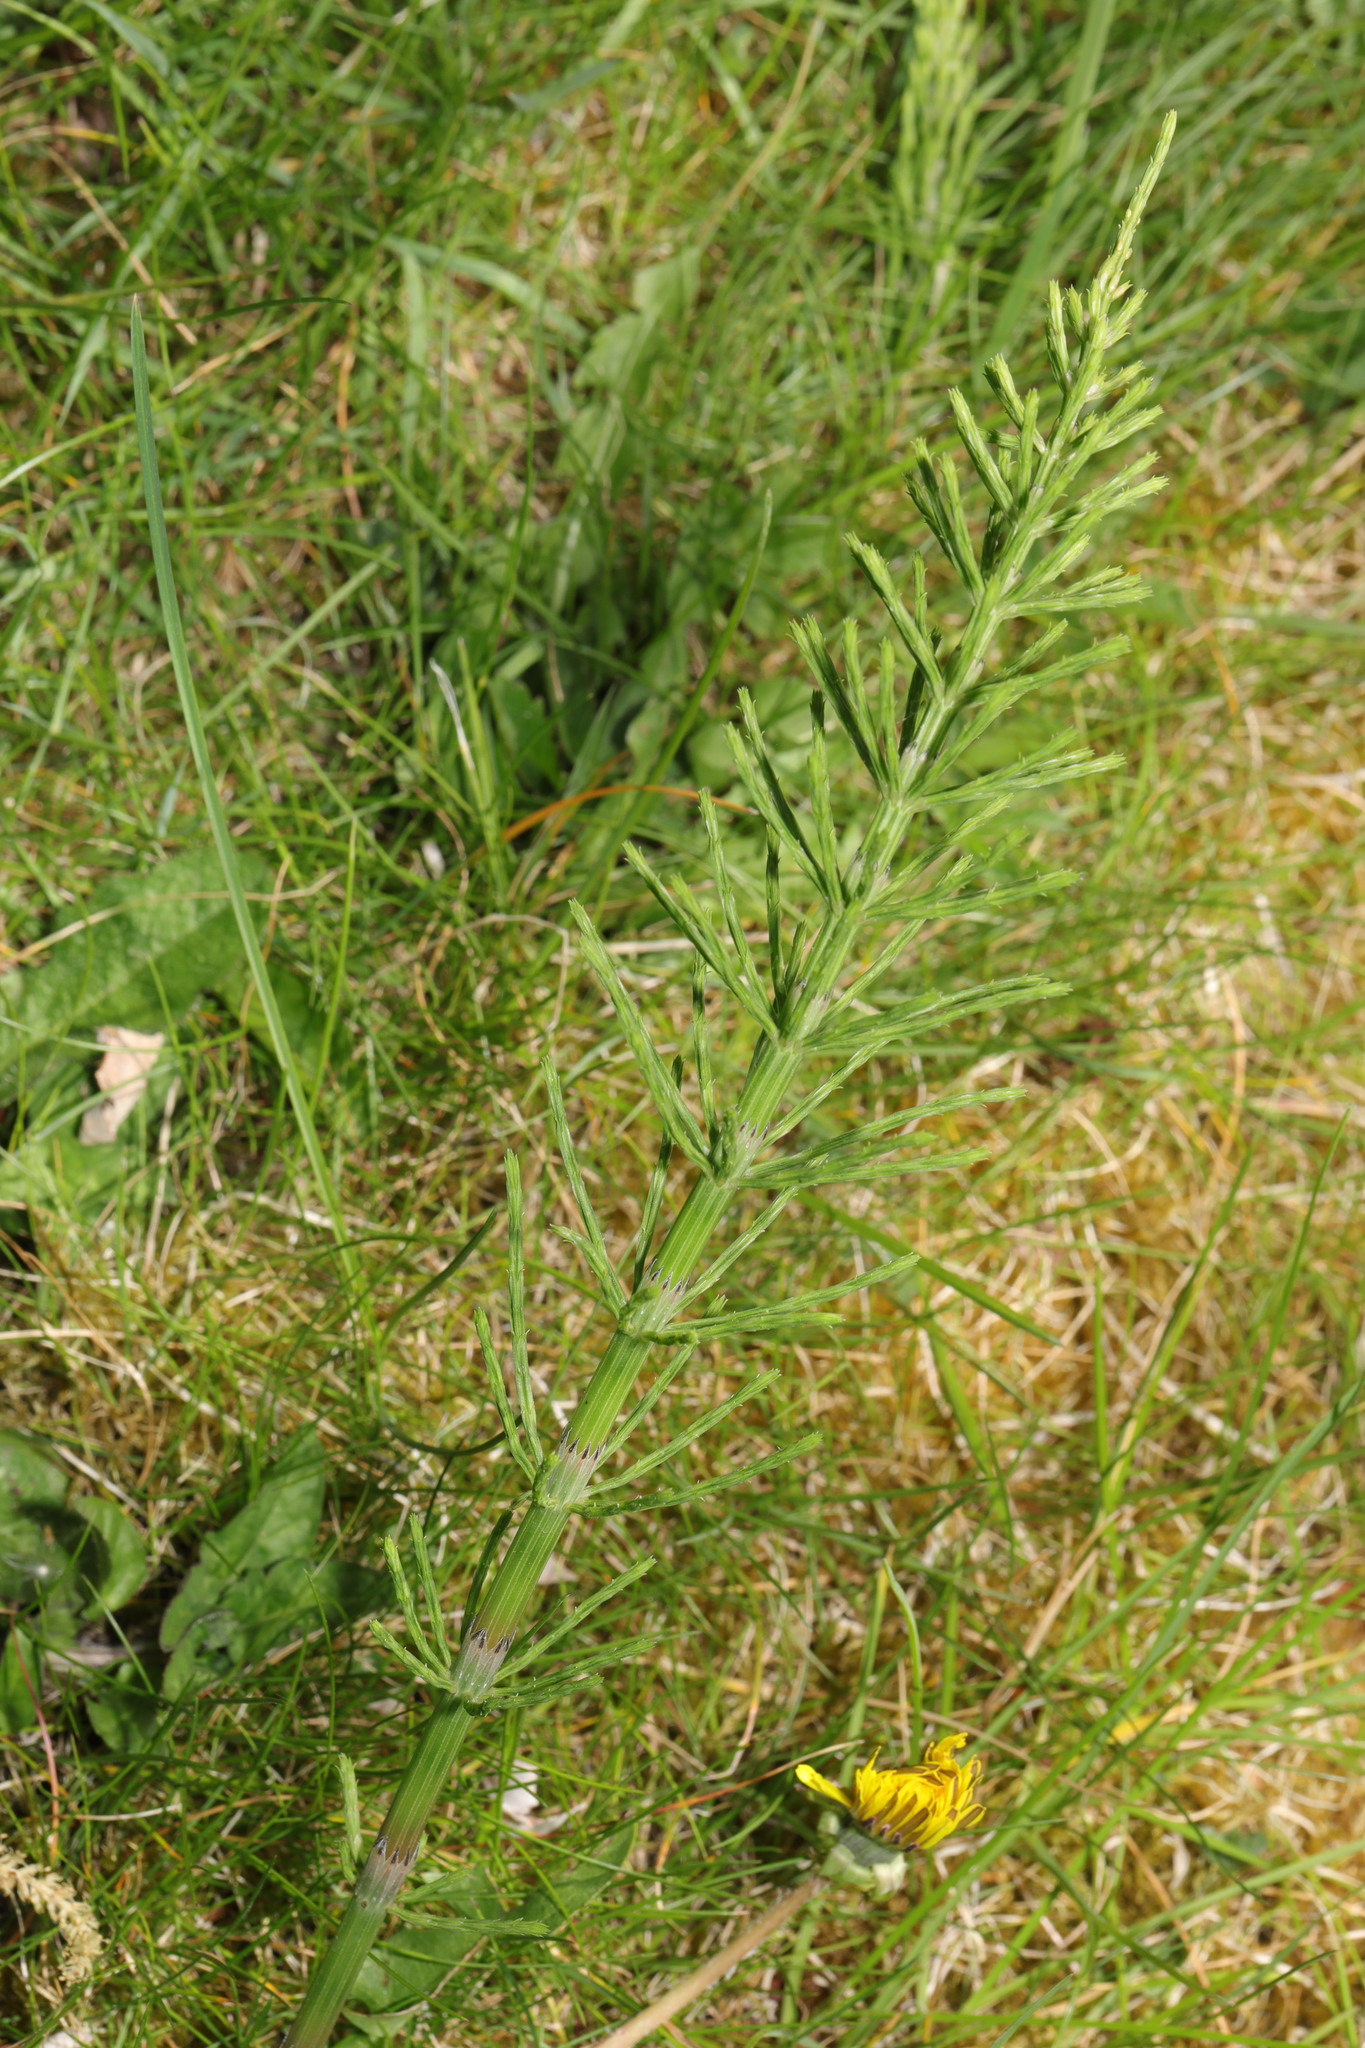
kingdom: Plantae
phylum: Tracheophyta
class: Polypodiopsida
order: Equisetales
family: Equisetaceae
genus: Equisetum
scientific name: Equisetum arvense
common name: Field horsetail
